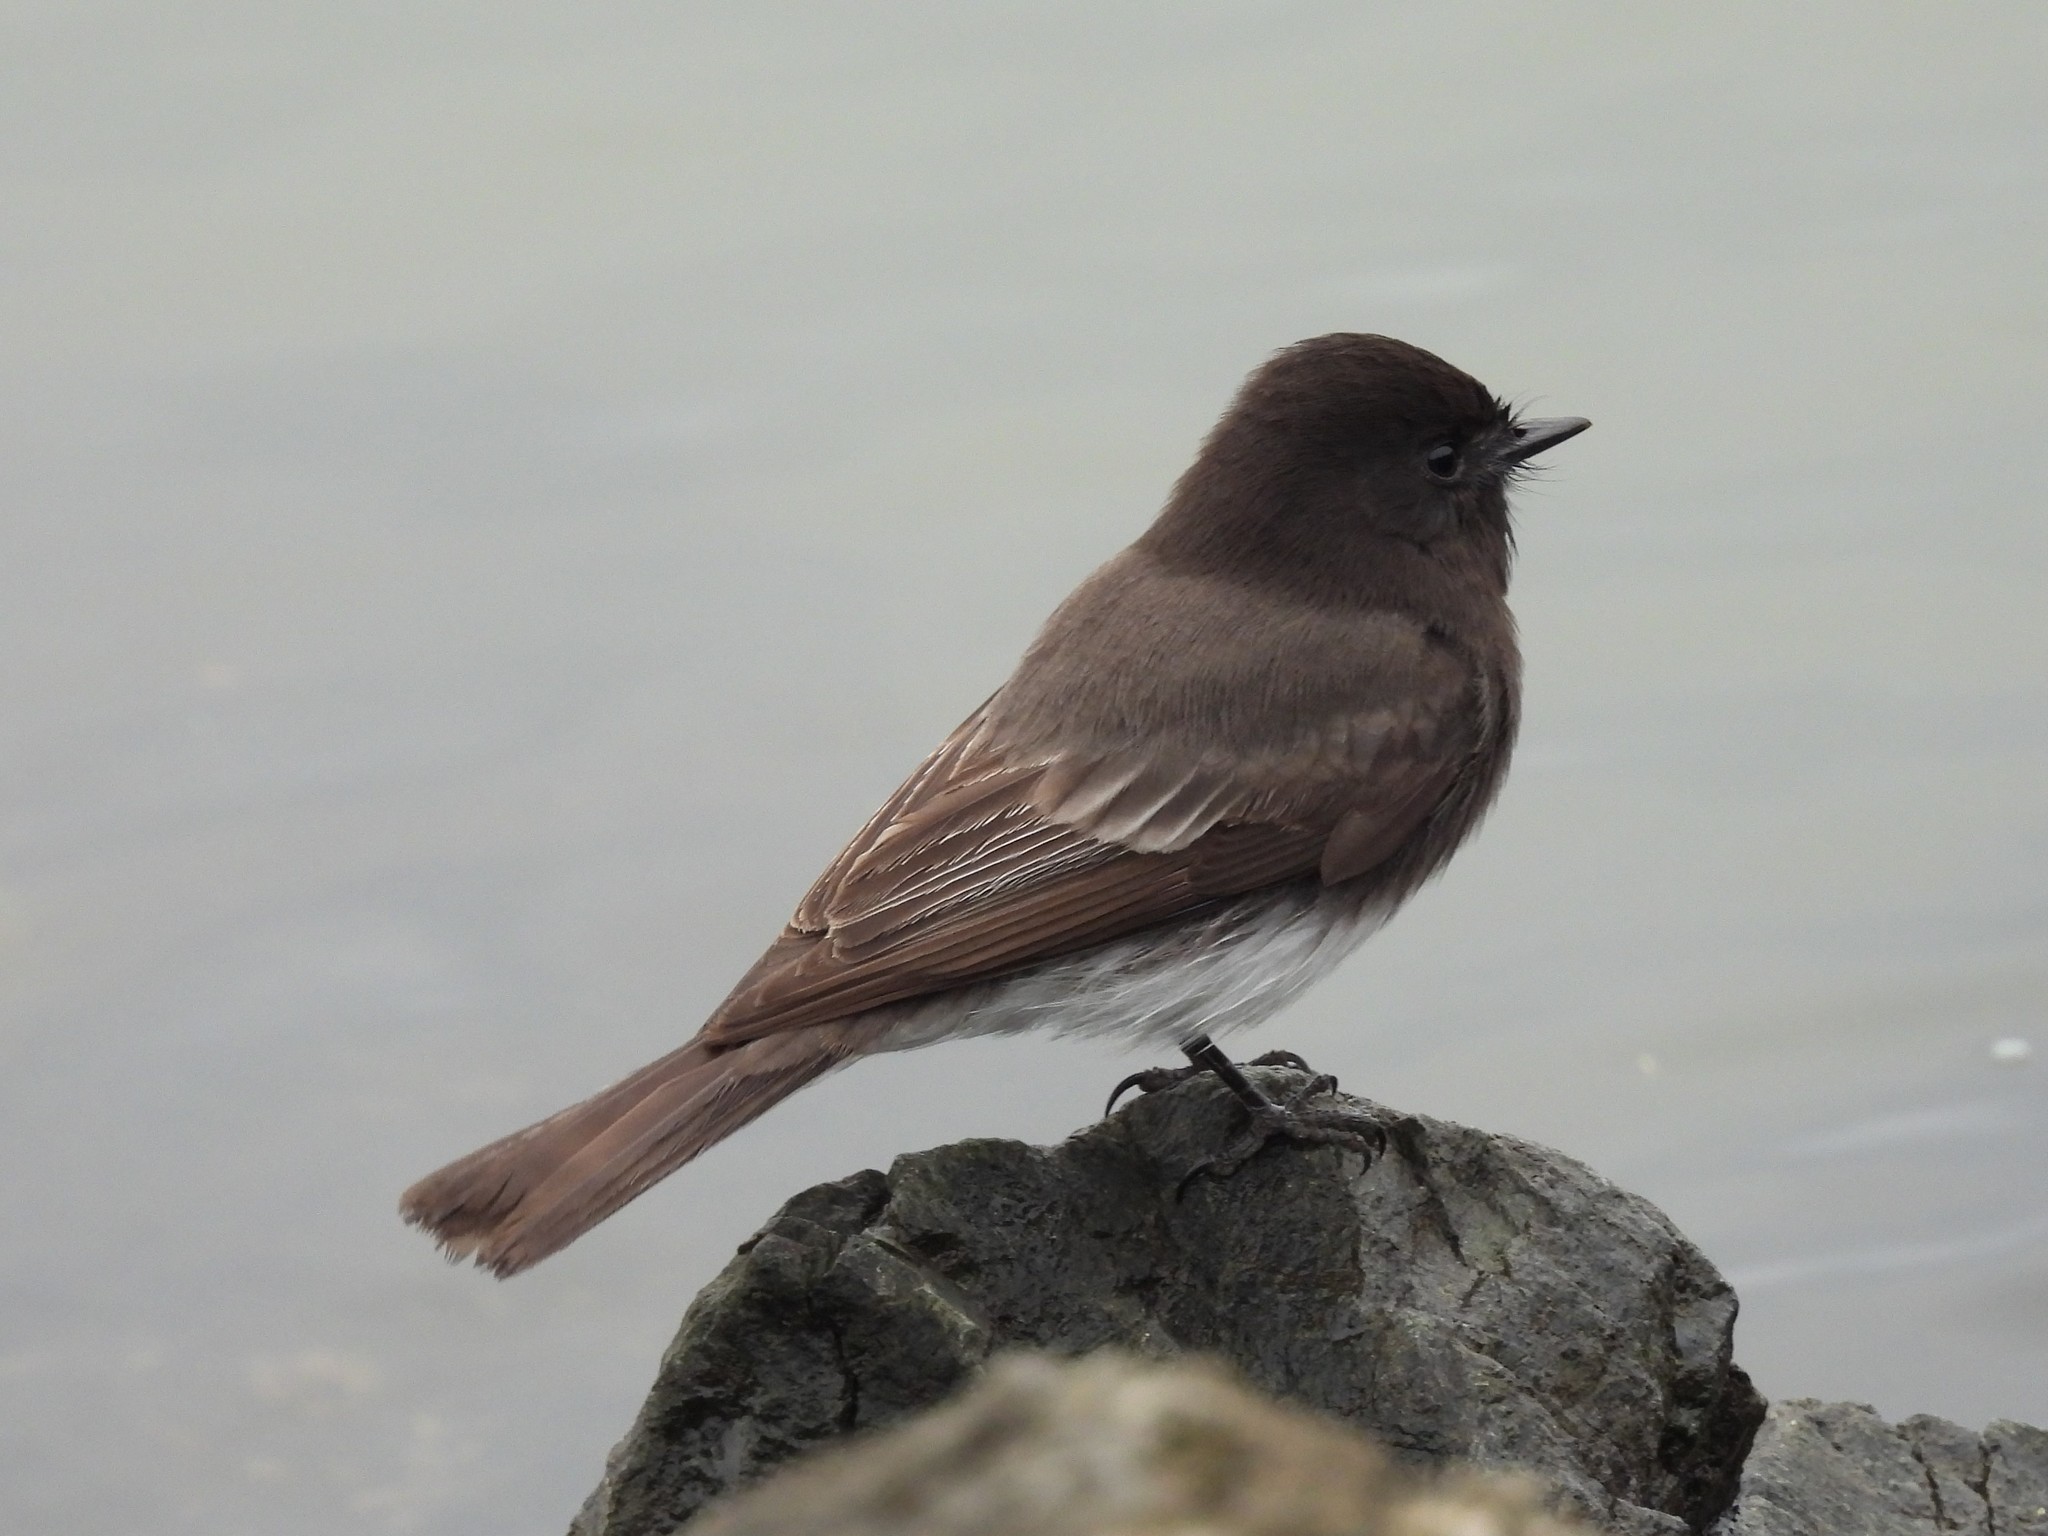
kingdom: Animalia
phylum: Chordata
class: Aves
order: Passeriformes
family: Tyrannidae
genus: Sayornis
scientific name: Sayornis nigricans
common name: Black phoebe
